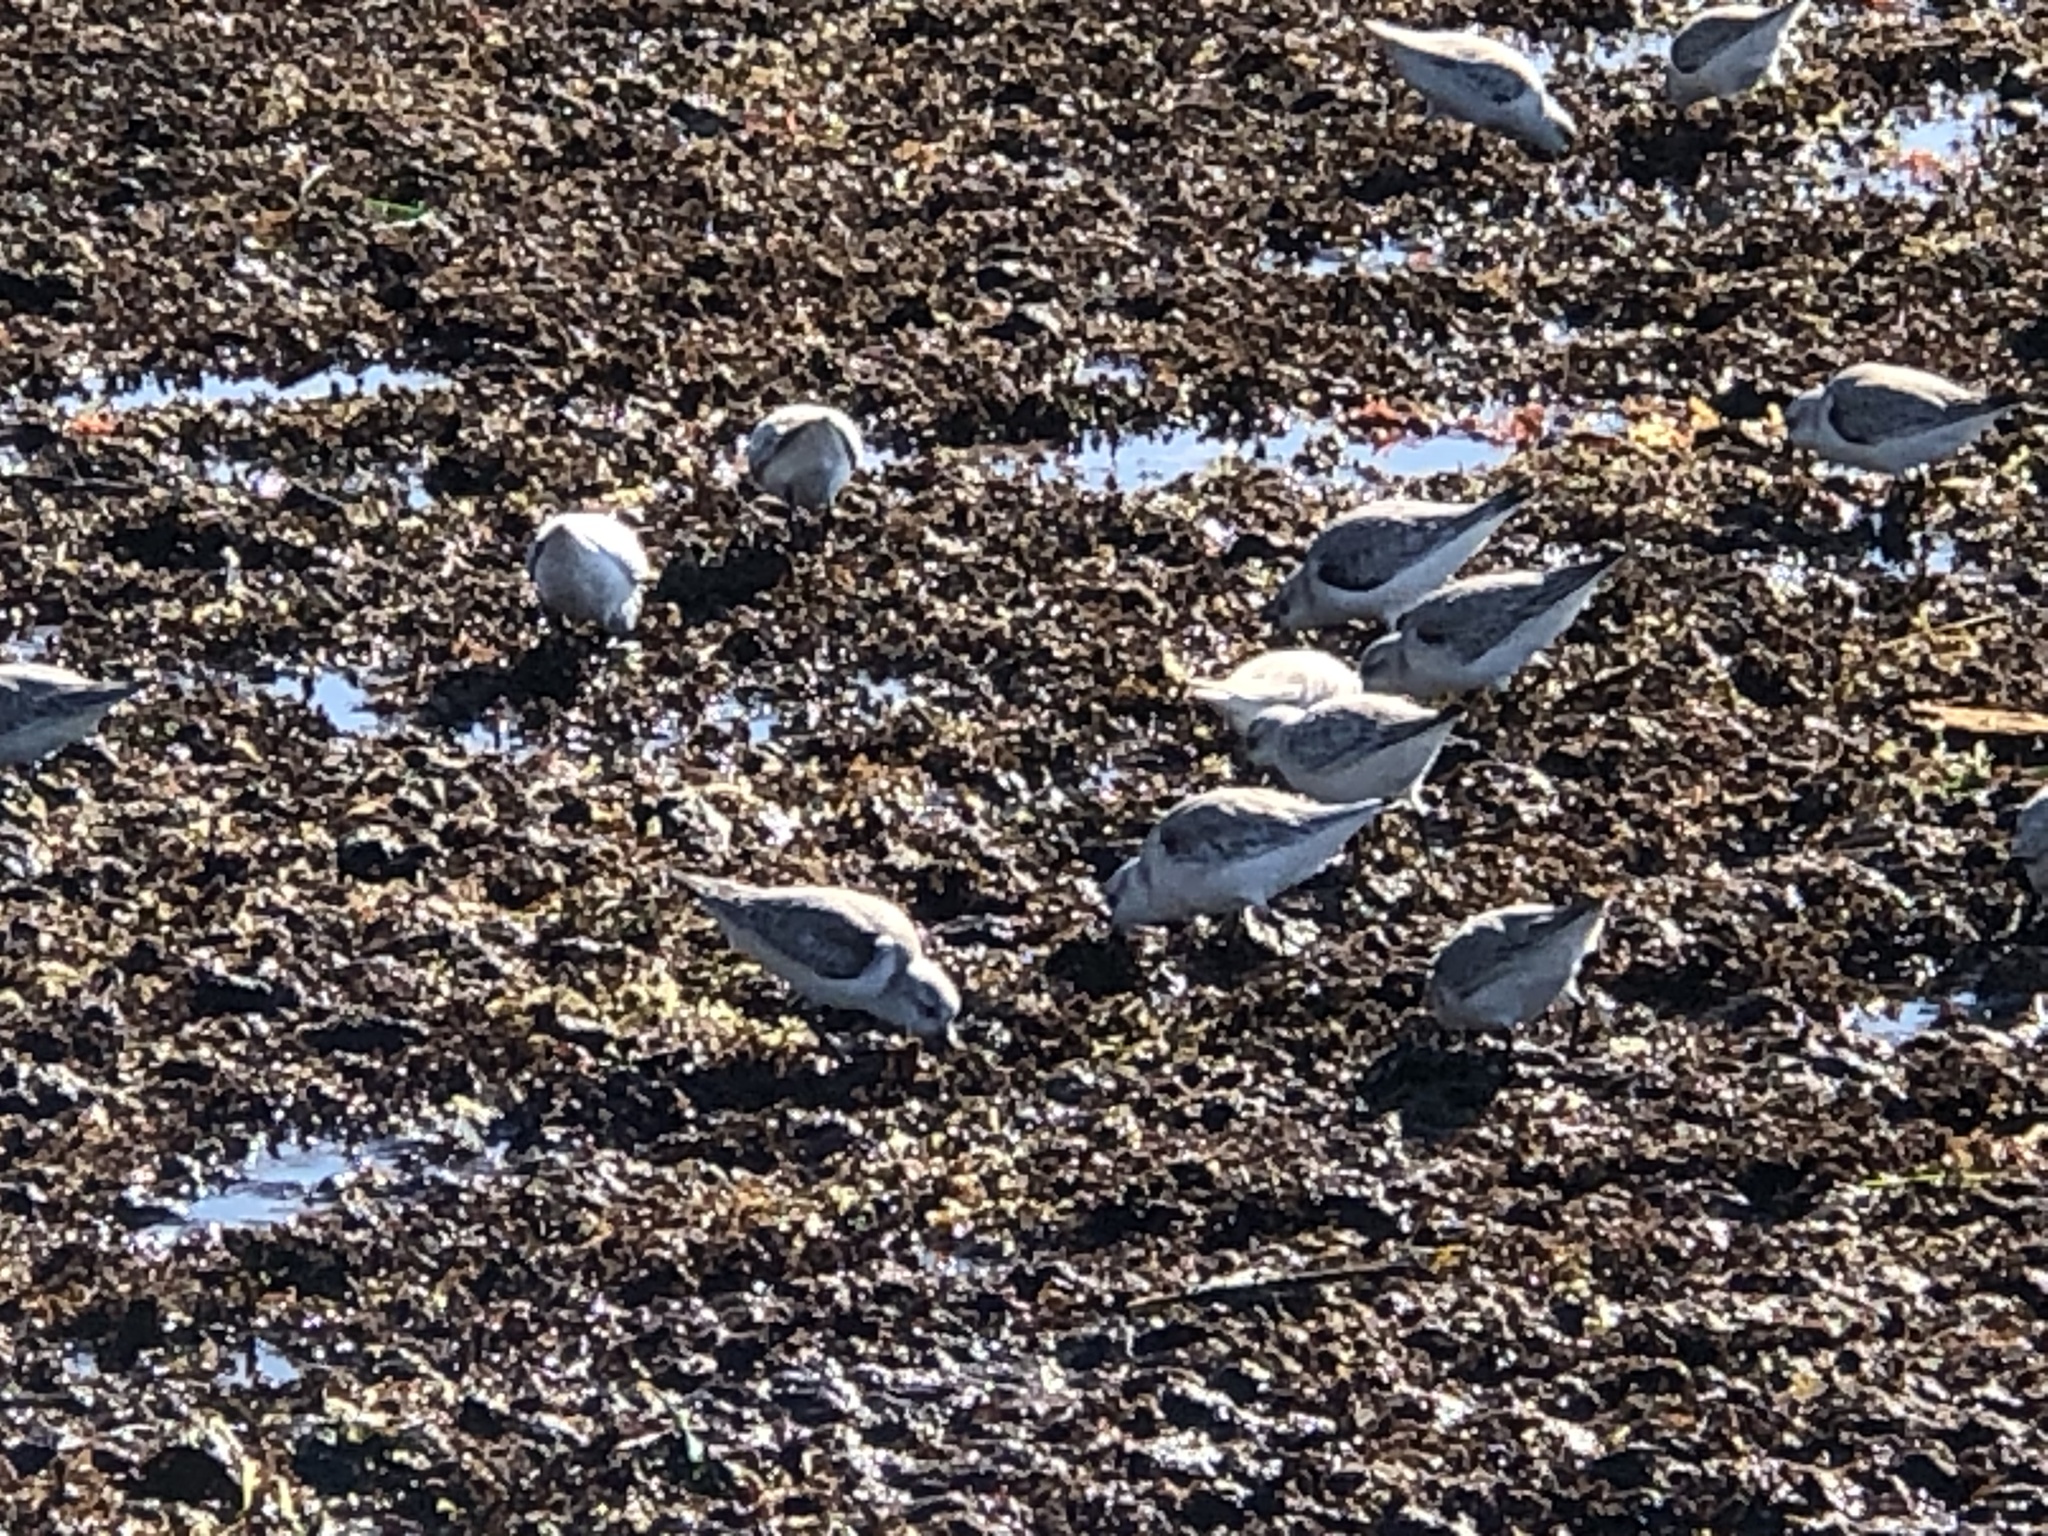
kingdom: Animalia
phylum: Chordata
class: Aves
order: Charadriiformes
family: Scolopacidae
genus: Calidris
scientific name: Calidris alba
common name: Sanderling
